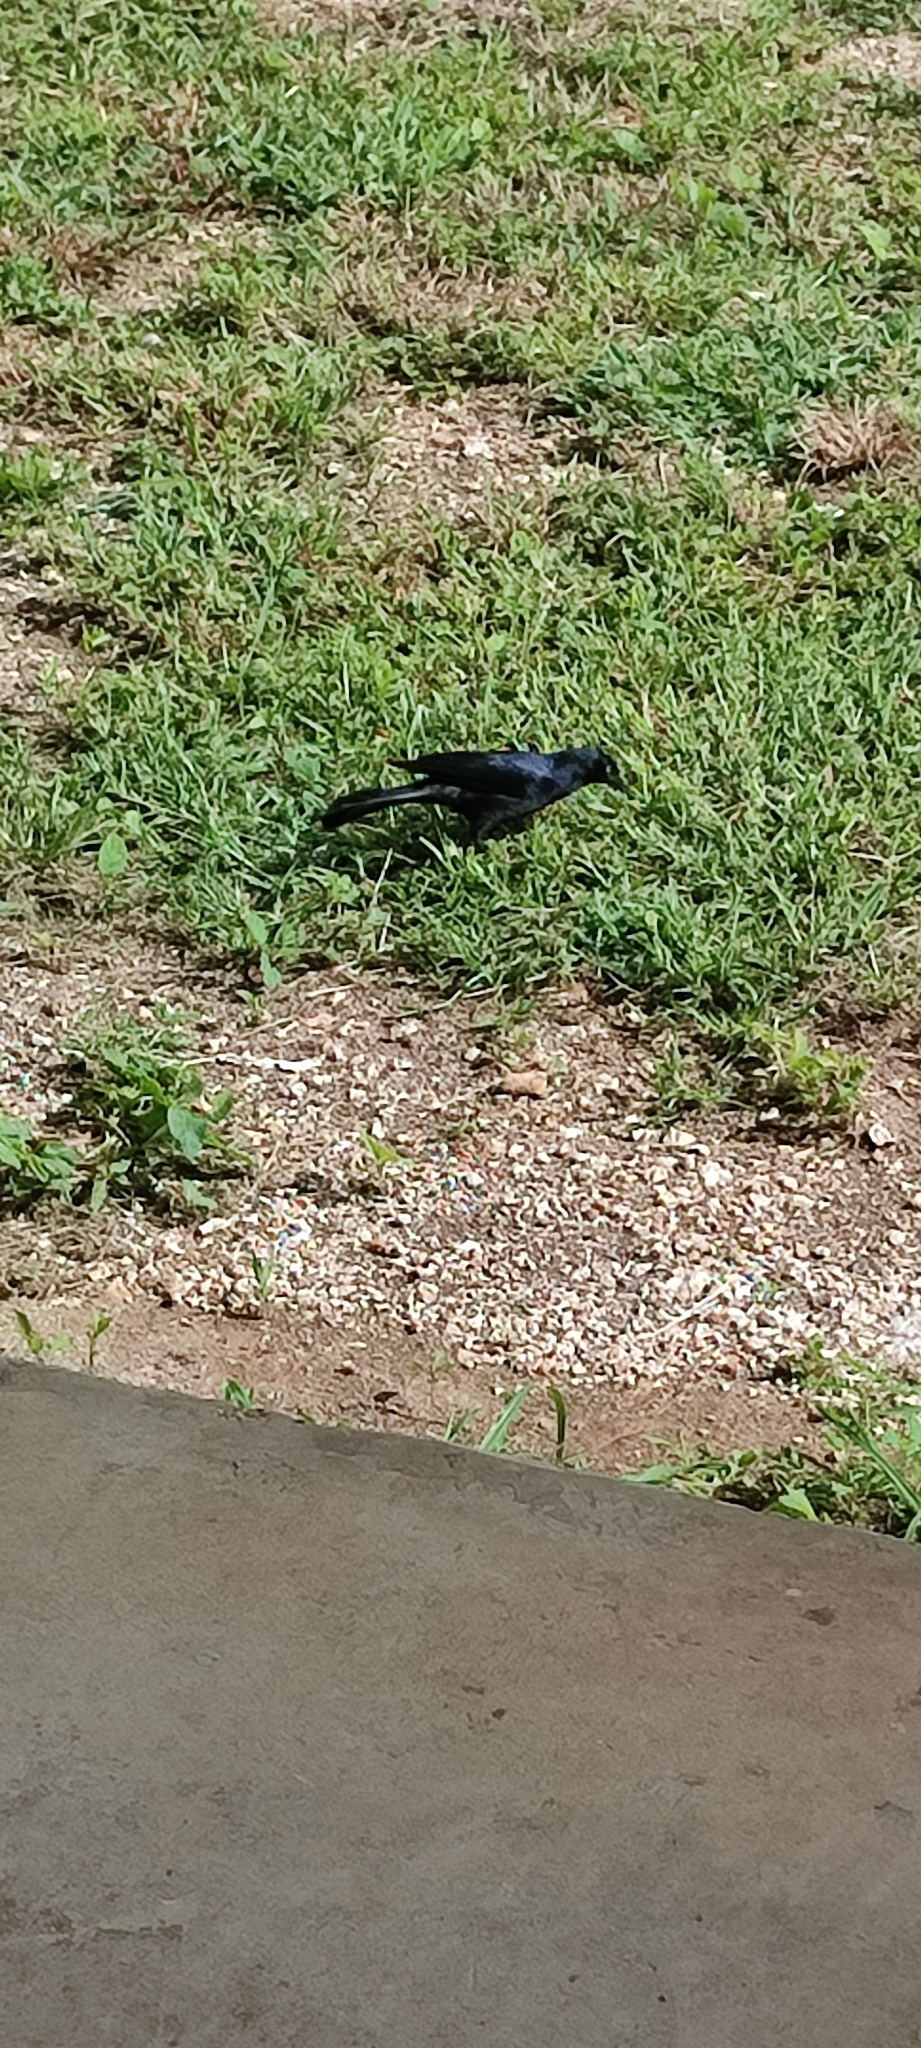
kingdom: Animalia
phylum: Chordata
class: Aves
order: Passeriformes
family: Icteridae
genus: Quiscalus
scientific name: Quiscalus niger
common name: Greater antillean grackle
